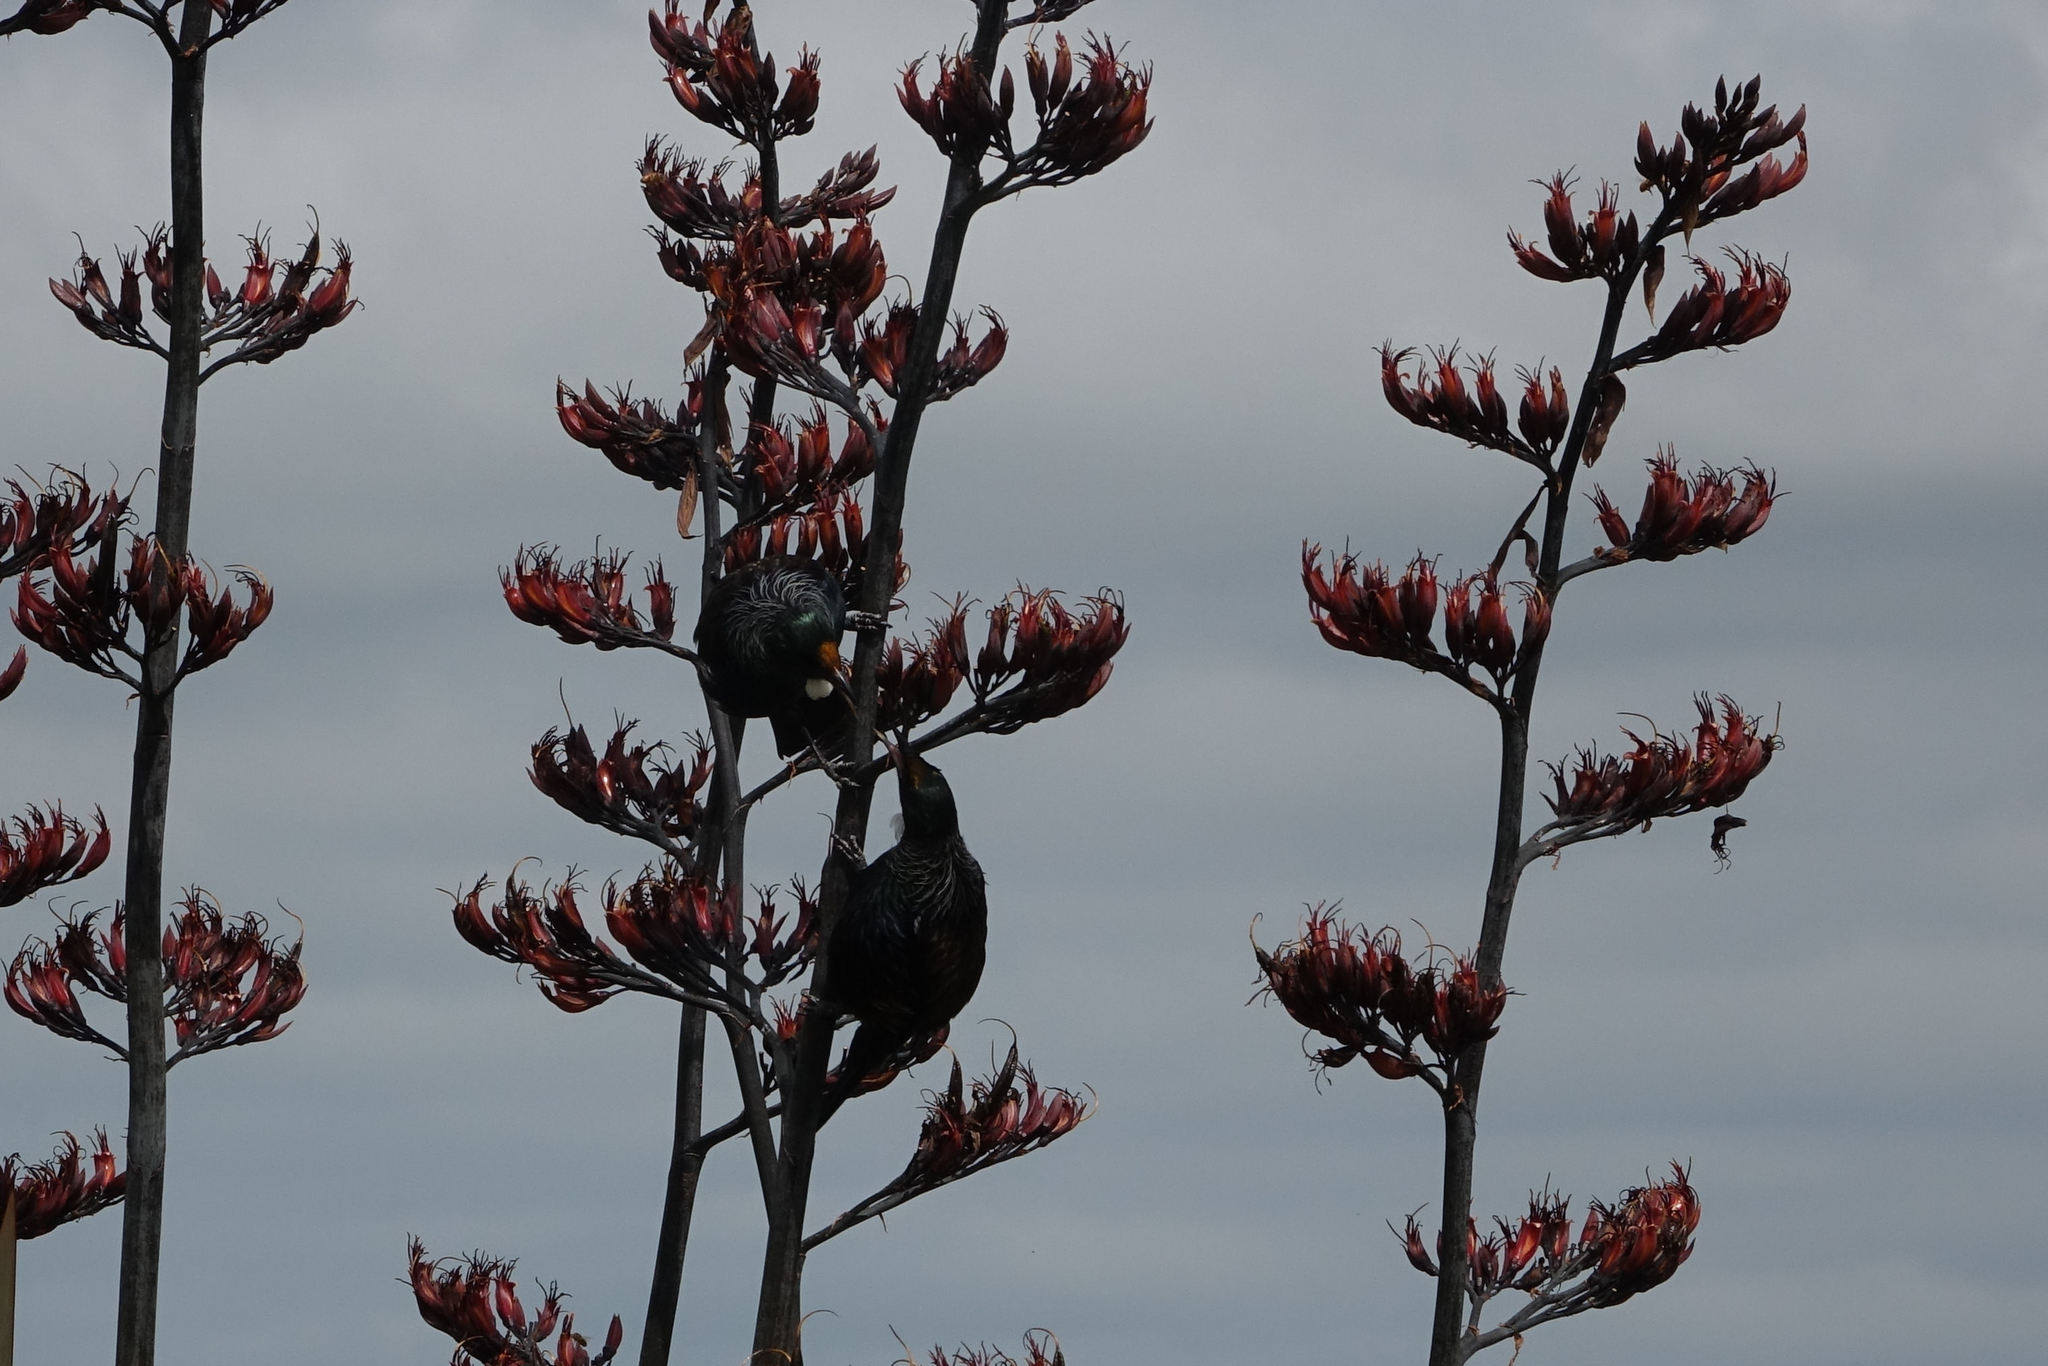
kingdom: Animalia
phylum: Chordata
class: Aves
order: Passeriformes
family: Meliphagidae
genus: Prosthemadera
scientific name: Prosthemadera novaeseelandiae
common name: Tui
